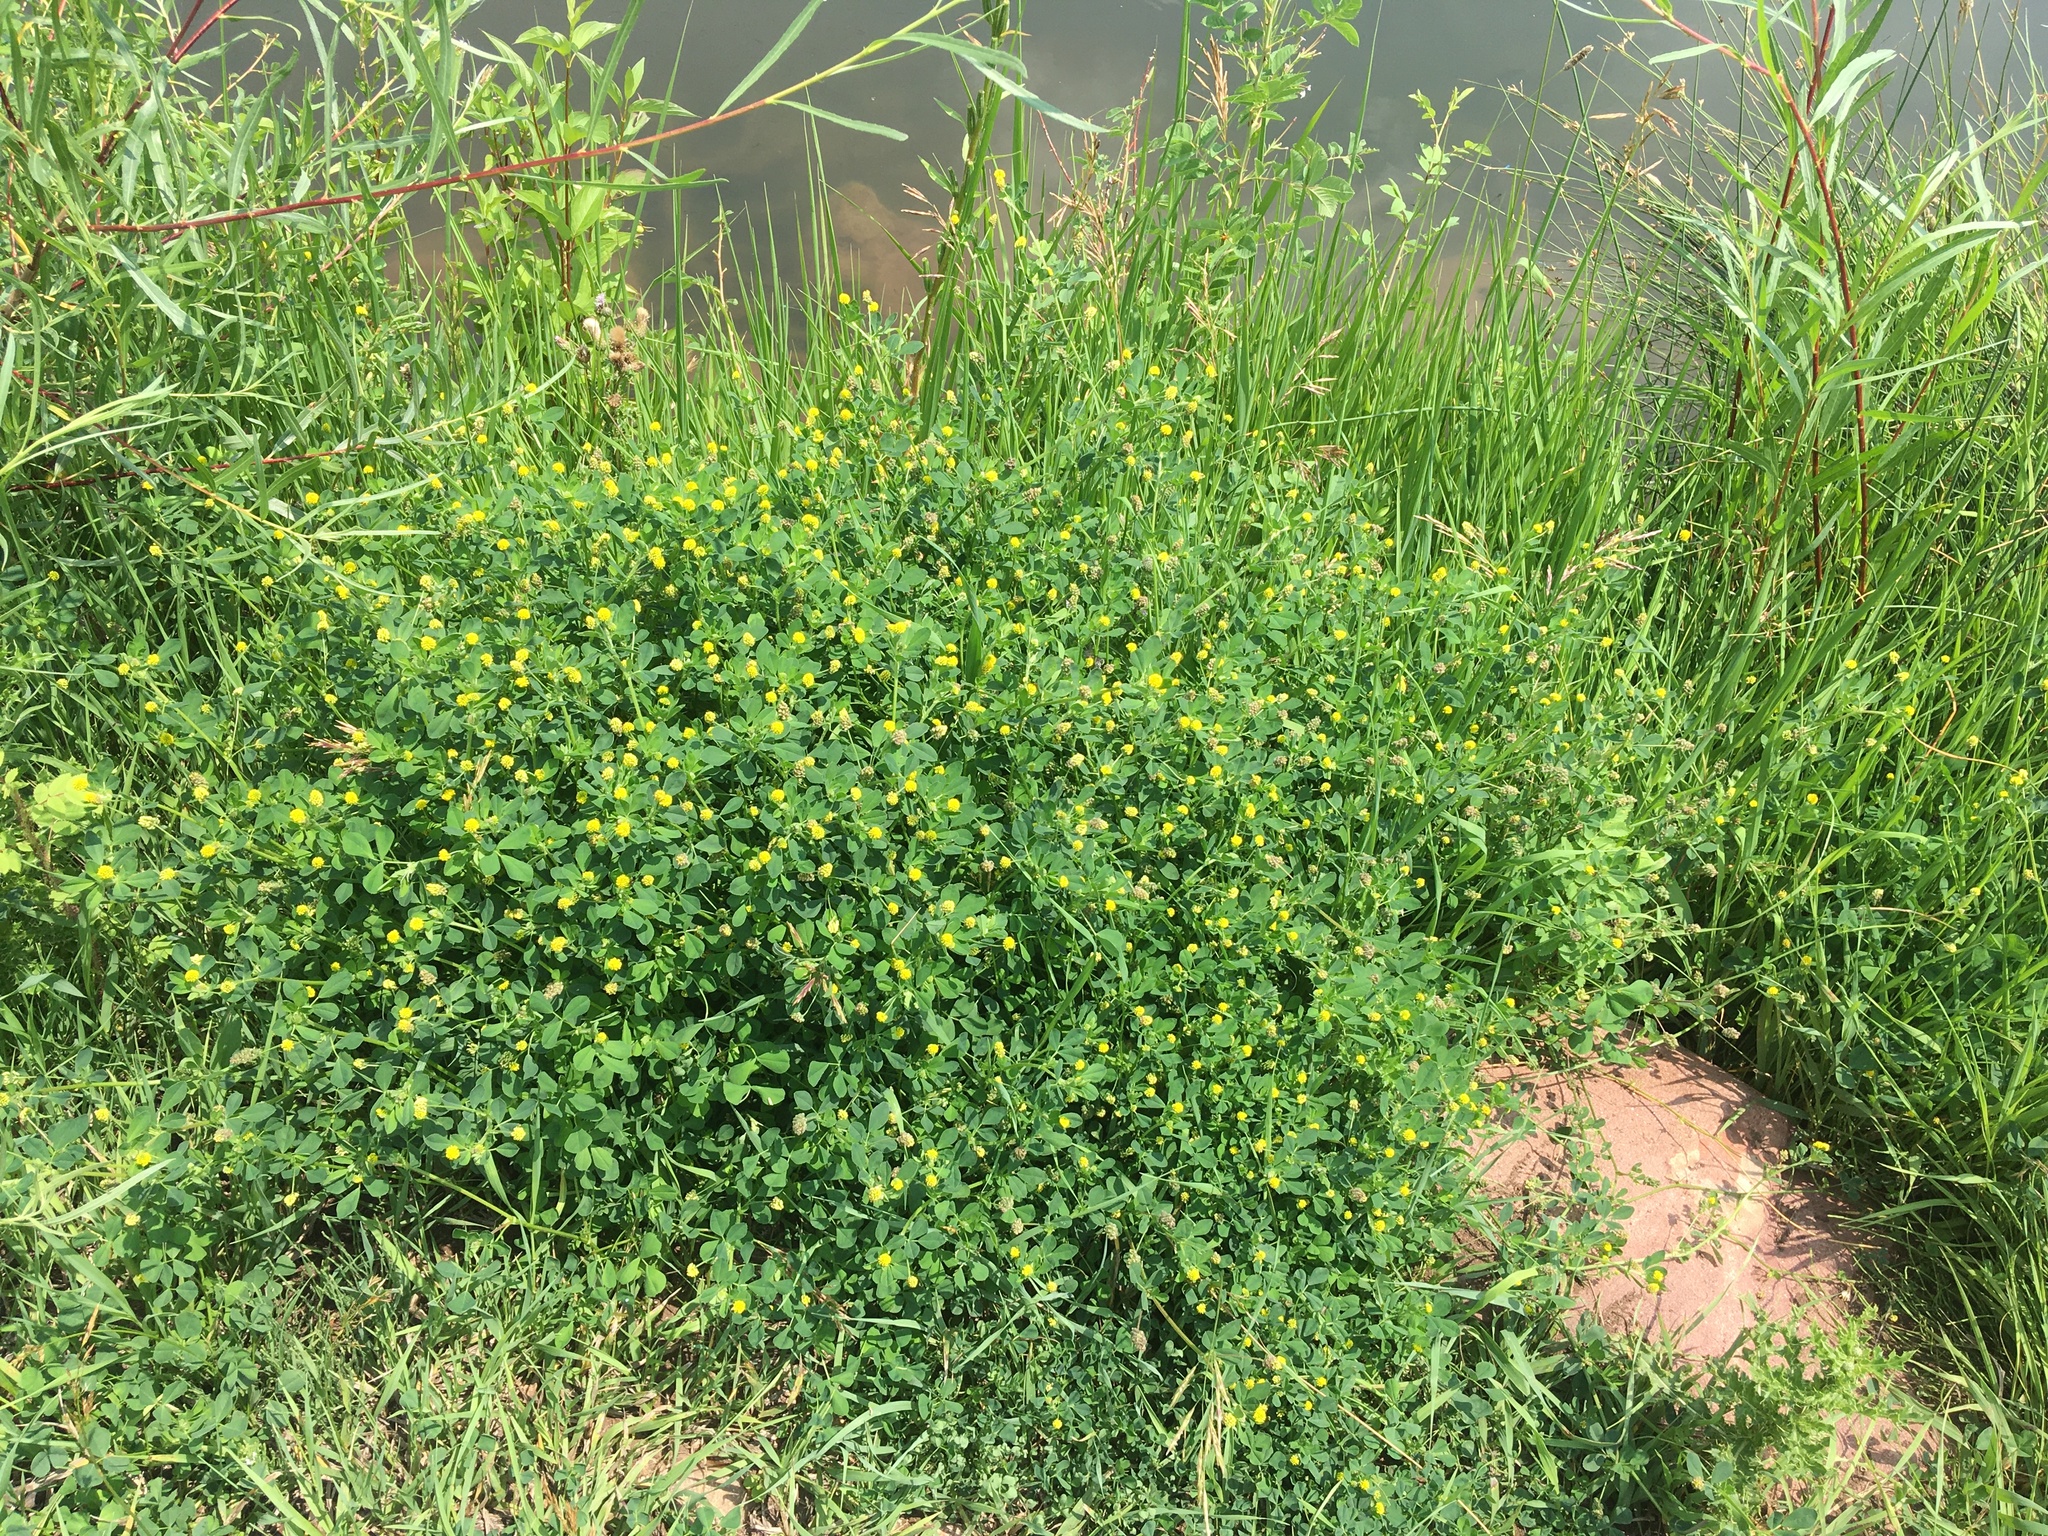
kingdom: Plantae
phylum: Tracheophyta
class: Magnoliopsida
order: Fabales
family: Fabaceae
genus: Medicago
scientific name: Medicago lupulina
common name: Black medick
